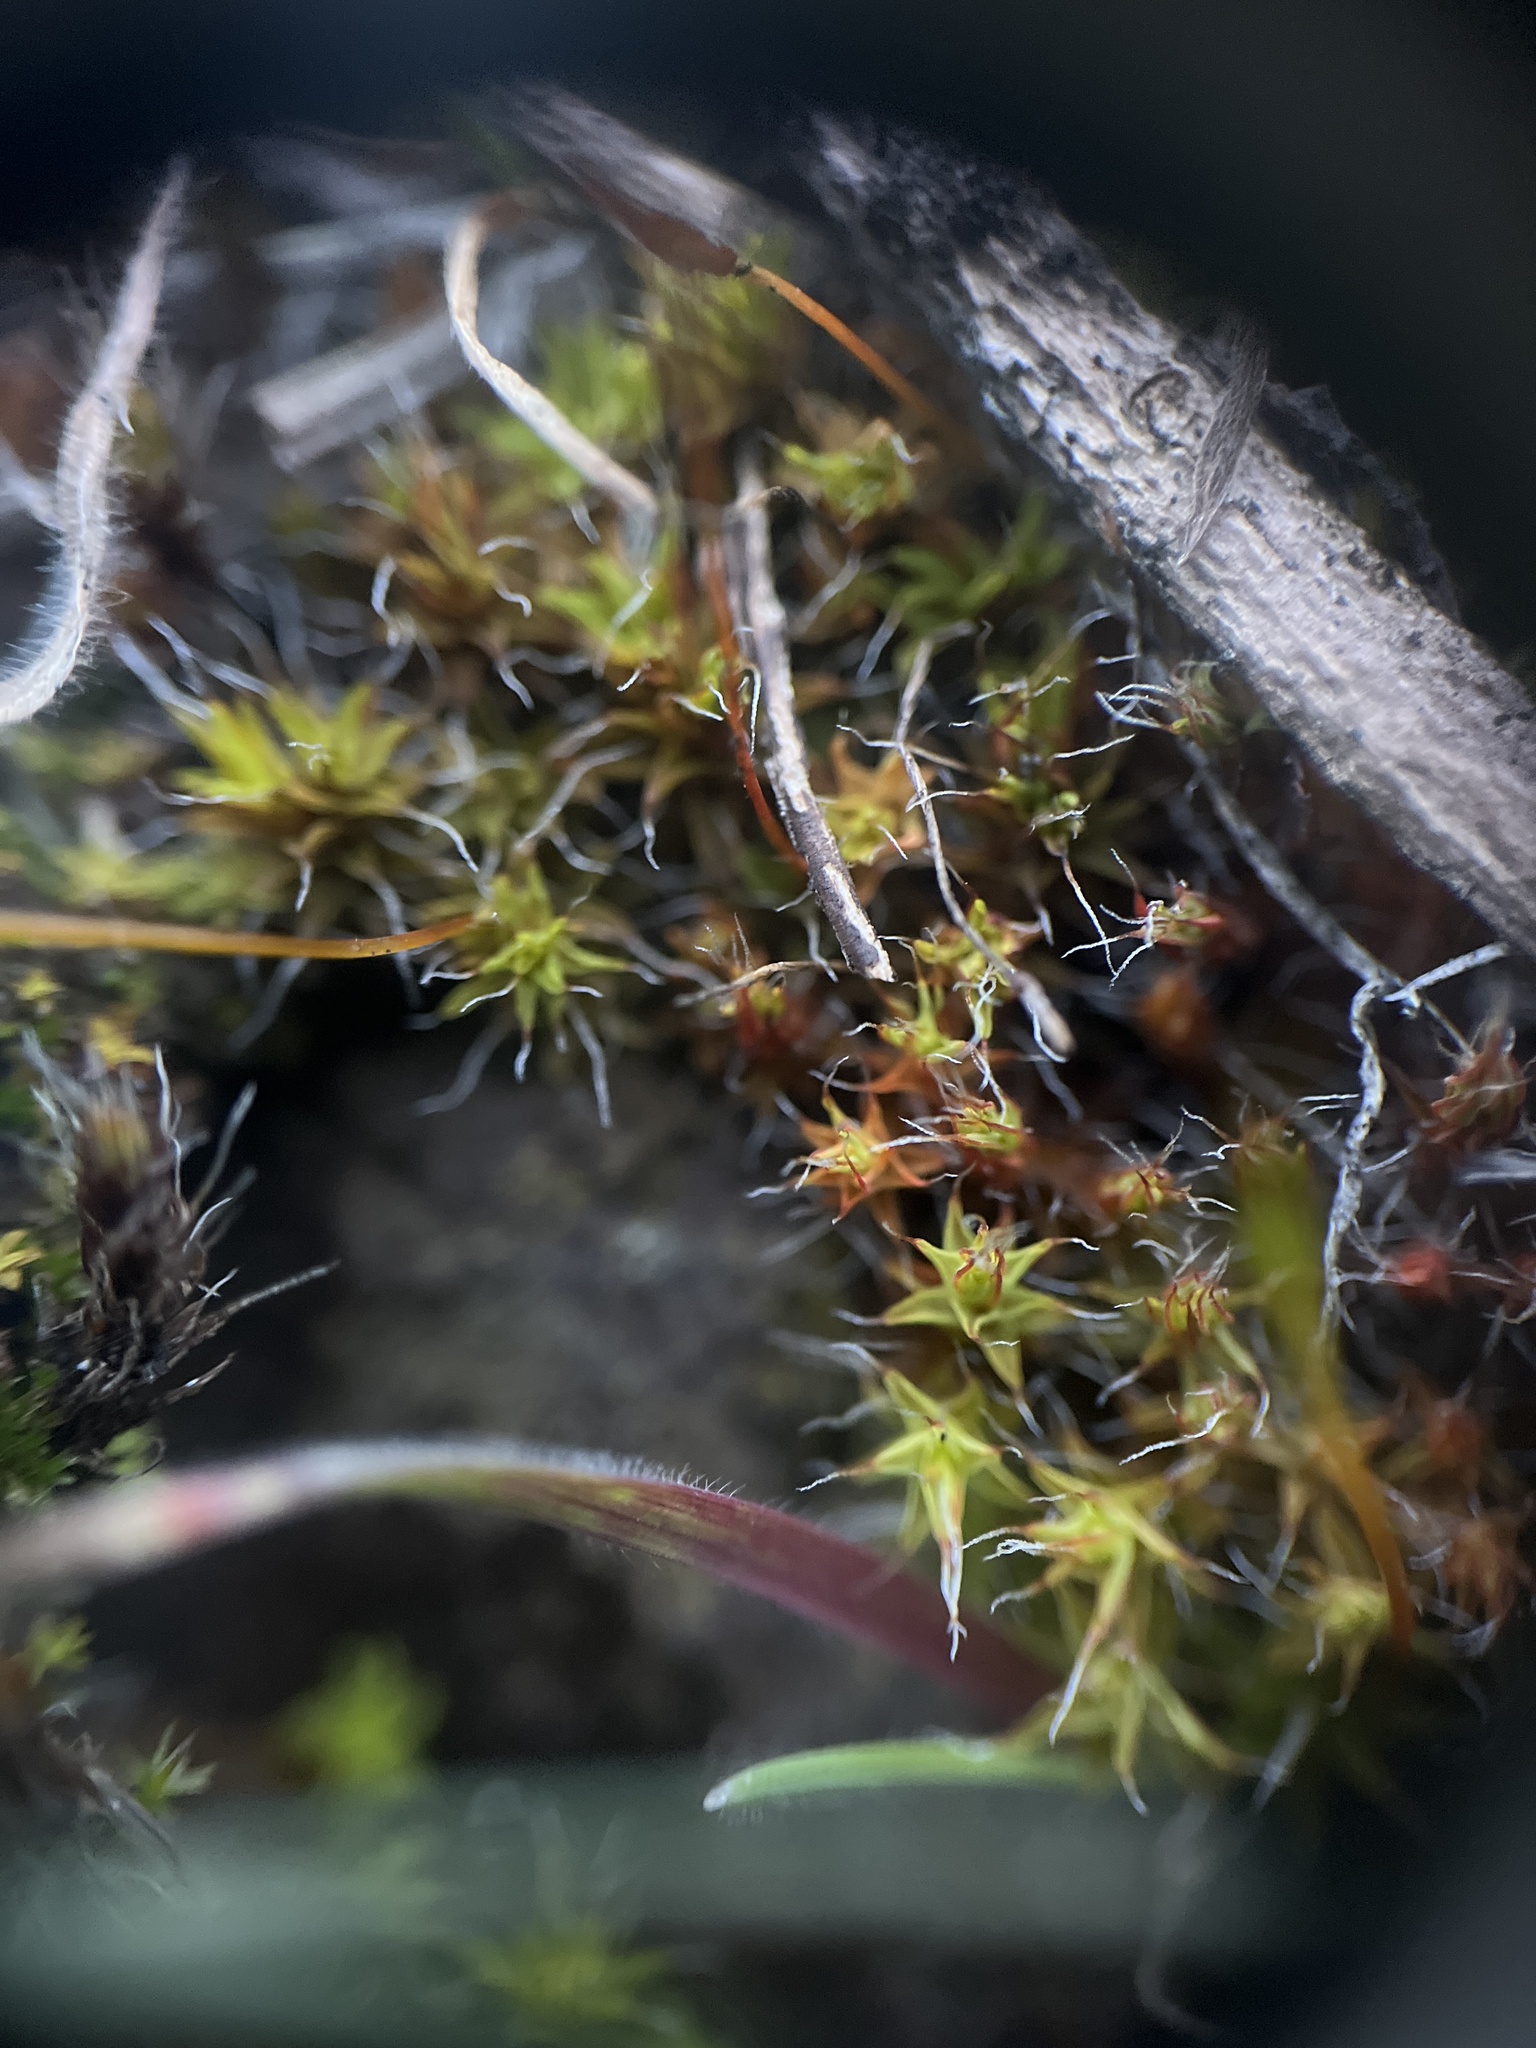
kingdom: Plantae
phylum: Bryophyta
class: Bryopsida
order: Pottiales
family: Pottiaceae
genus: Syntrichia
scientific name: Syntrichia ruralis
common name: Sidewalk screw moss
